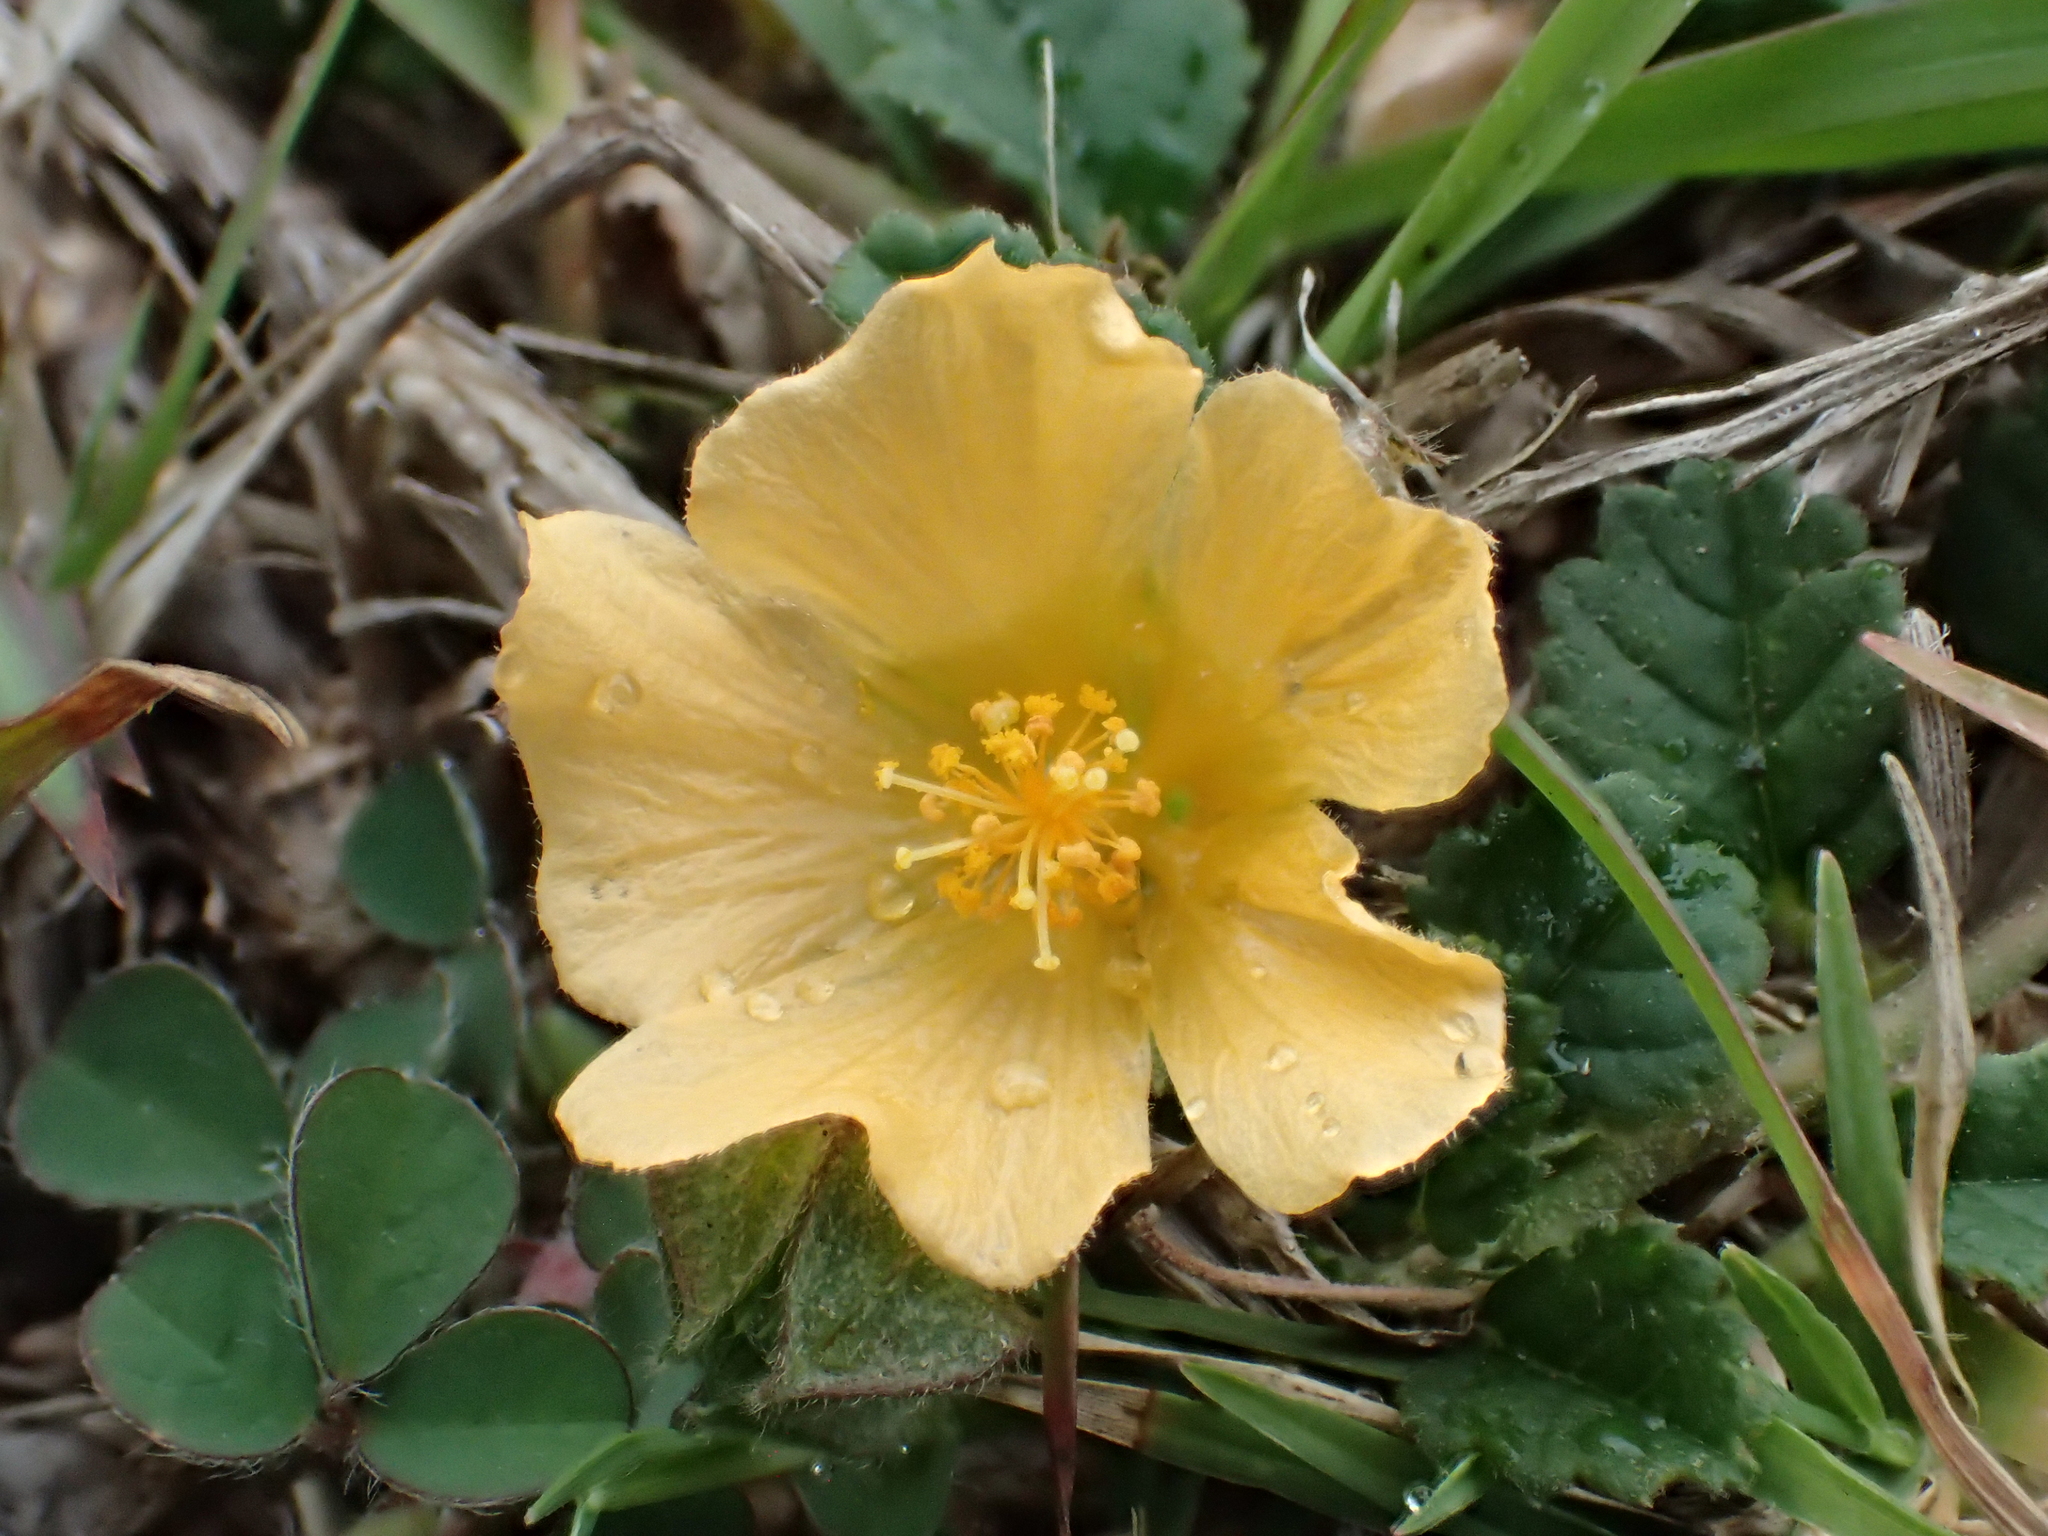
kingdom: Plantae
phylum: Tracheophyta
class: Magnoliopsida
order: Malvales
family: Malvaceae
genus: Sida
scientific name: Sida rhombifolia
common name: Queensland-hemp
